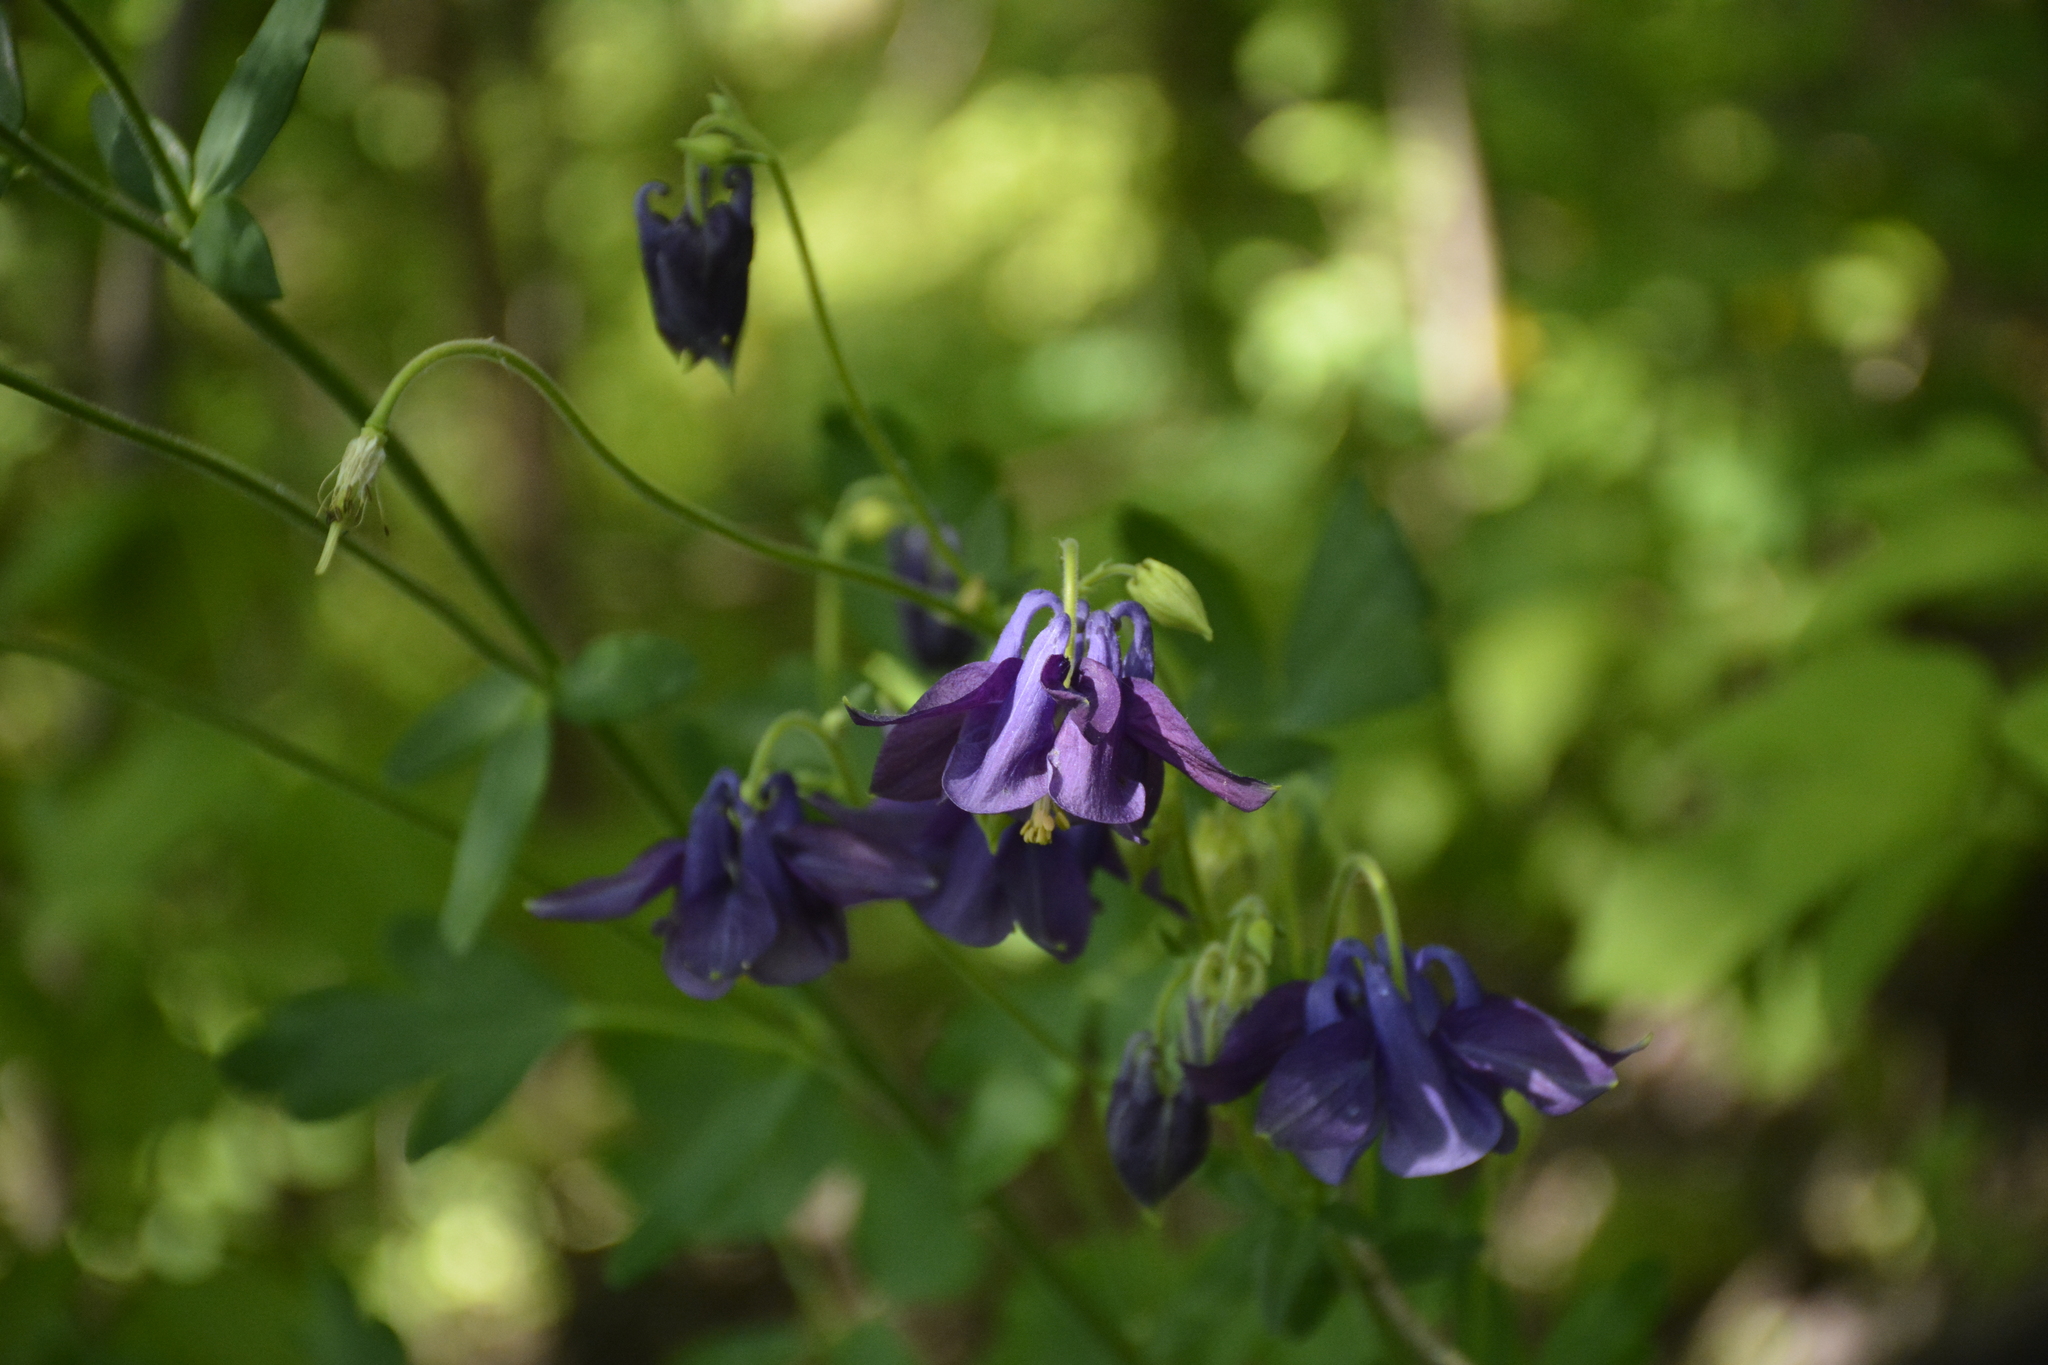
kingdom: Plantae
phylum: Tracheophyta
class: Magnoliopsida
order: Ranunculales
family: Ranunculaceae
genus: Aquilegia
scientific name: Aquilegia vulgaris
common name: Columbine
